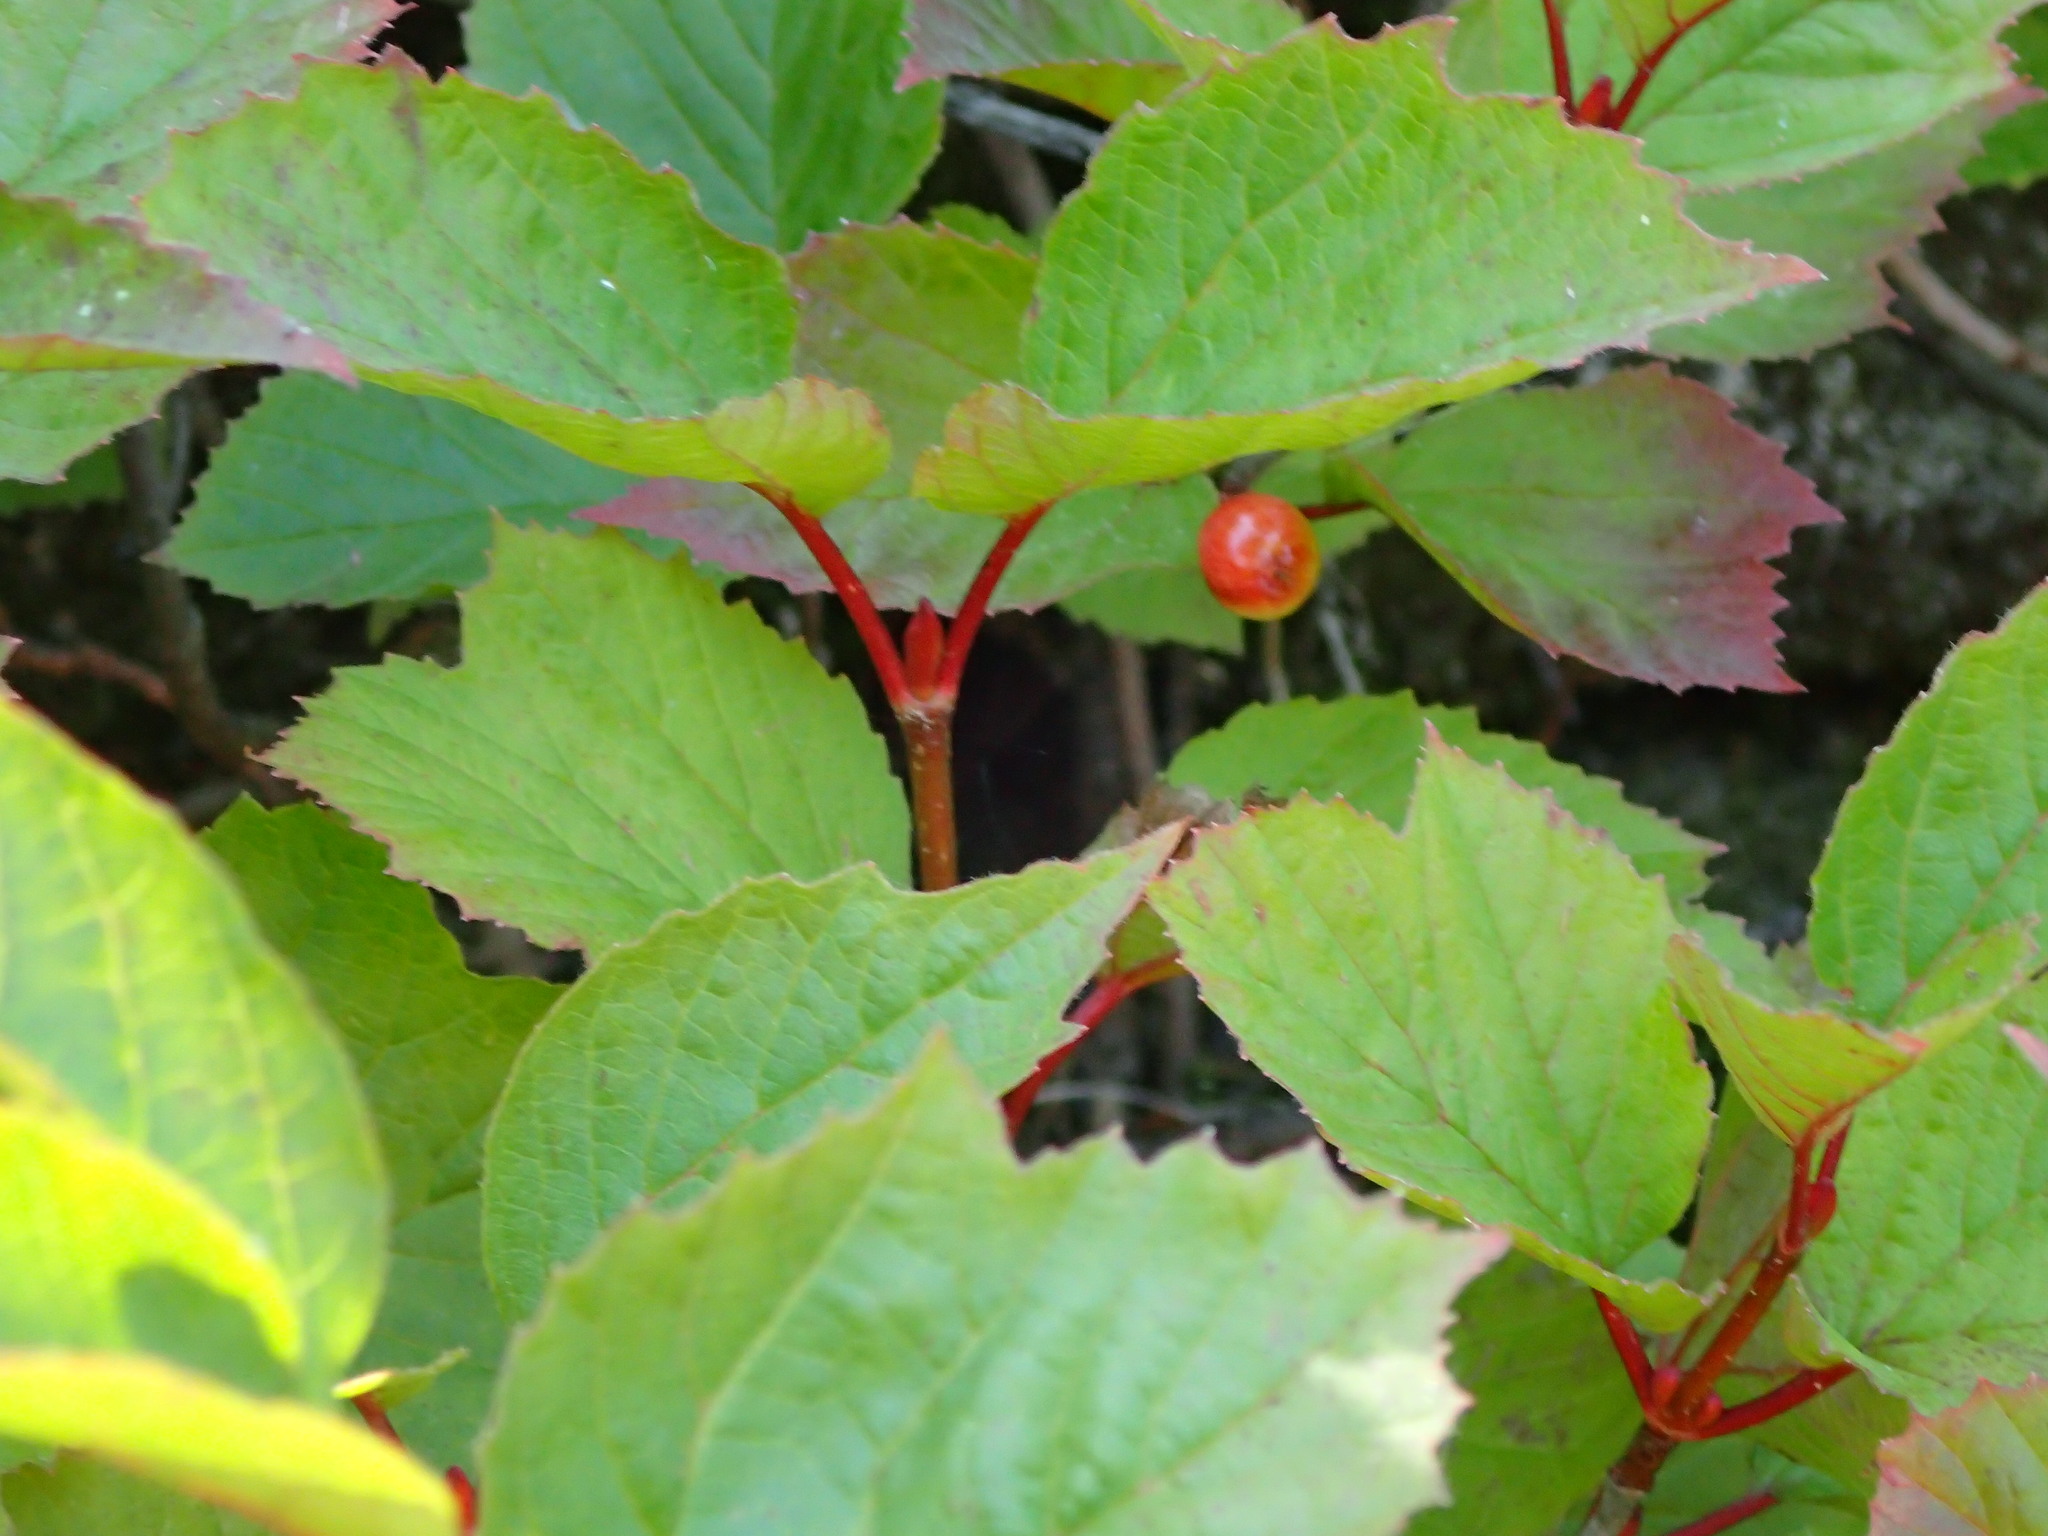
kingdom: Plantae
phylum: Tracheophyta
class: Magnoliopsida
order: Dipsacales
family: Viburnaceae
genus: Viburnum
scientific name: Viburnum edule
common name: Mooseberry
